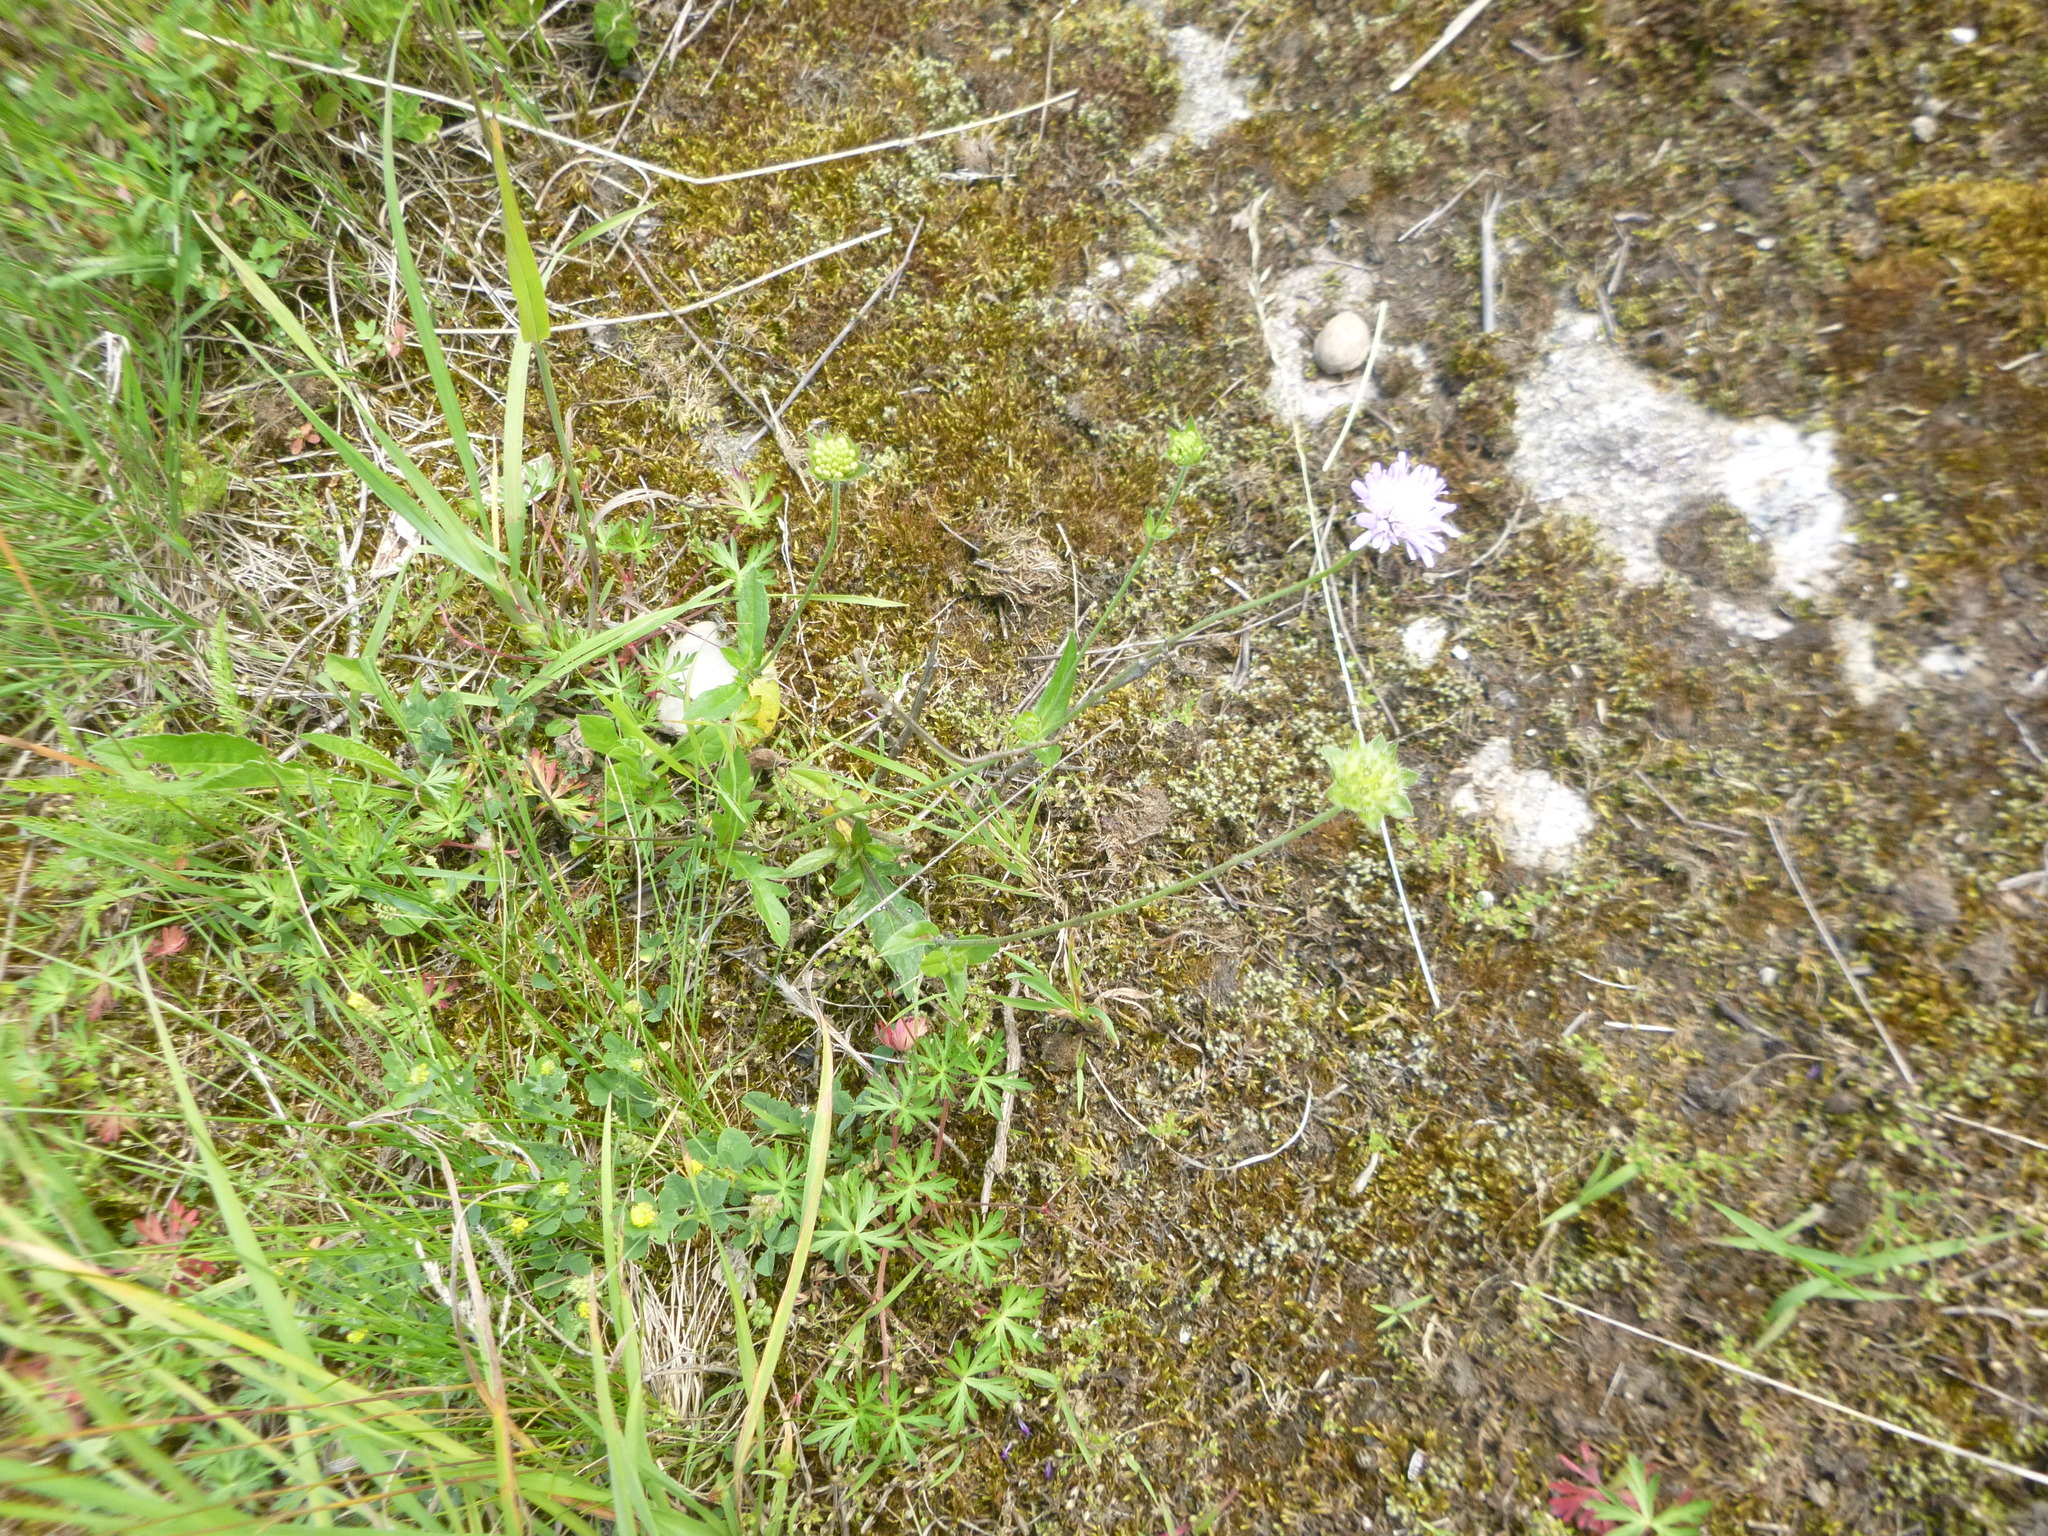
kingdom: Plantae
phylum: Tracheophyta
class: Magnoliopsida
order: Dipsacales
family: Caprifoliaceae
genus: Knautia
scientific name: Knautia arvensis
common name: Field scabiosa
